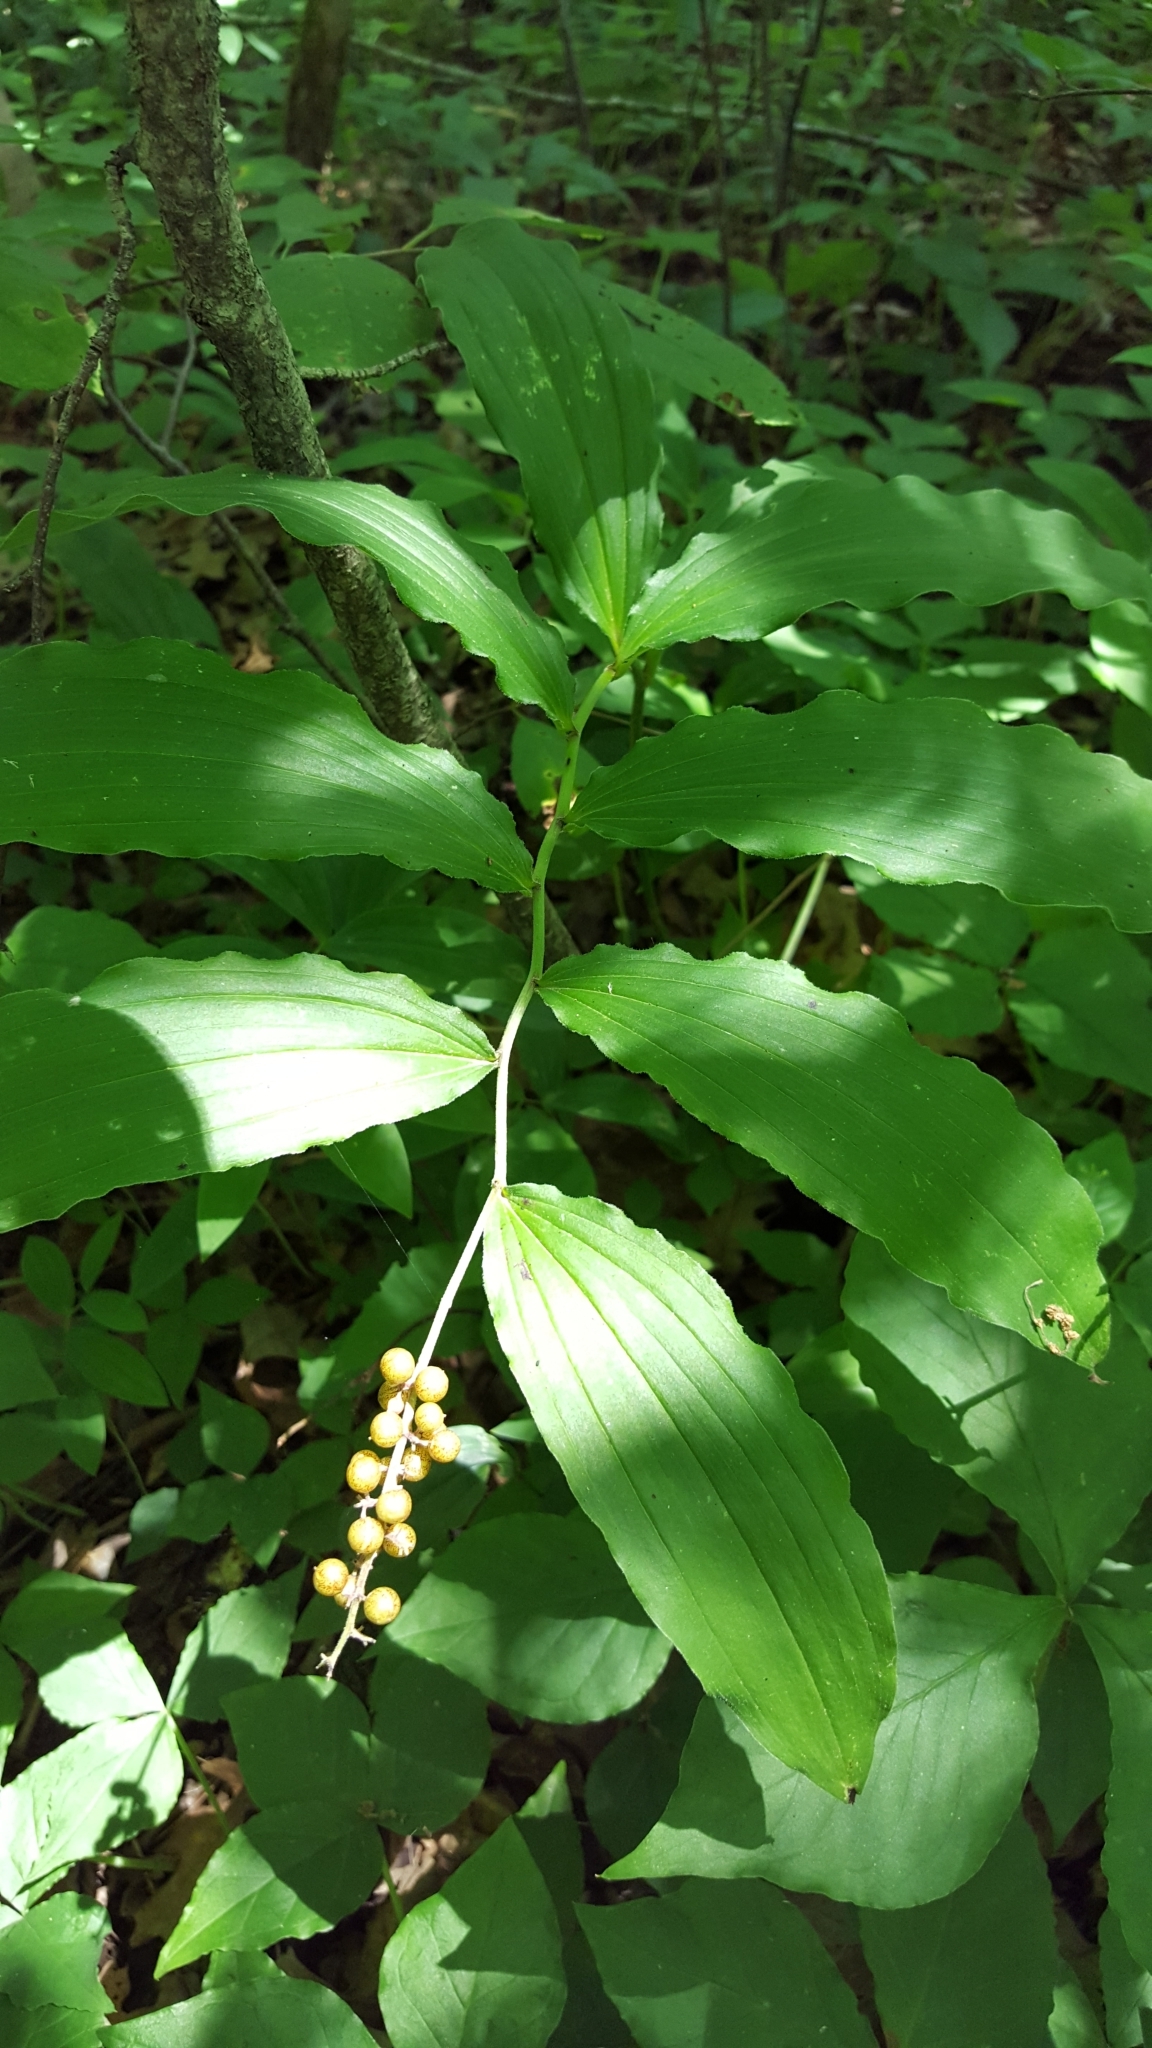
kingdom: Plantae
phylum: Tracheophyta
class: Liliopsida
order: Asparagales
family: Asparagaceae
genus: Maianthemum
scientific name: Maianthemum racemosum
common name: False spikenard
